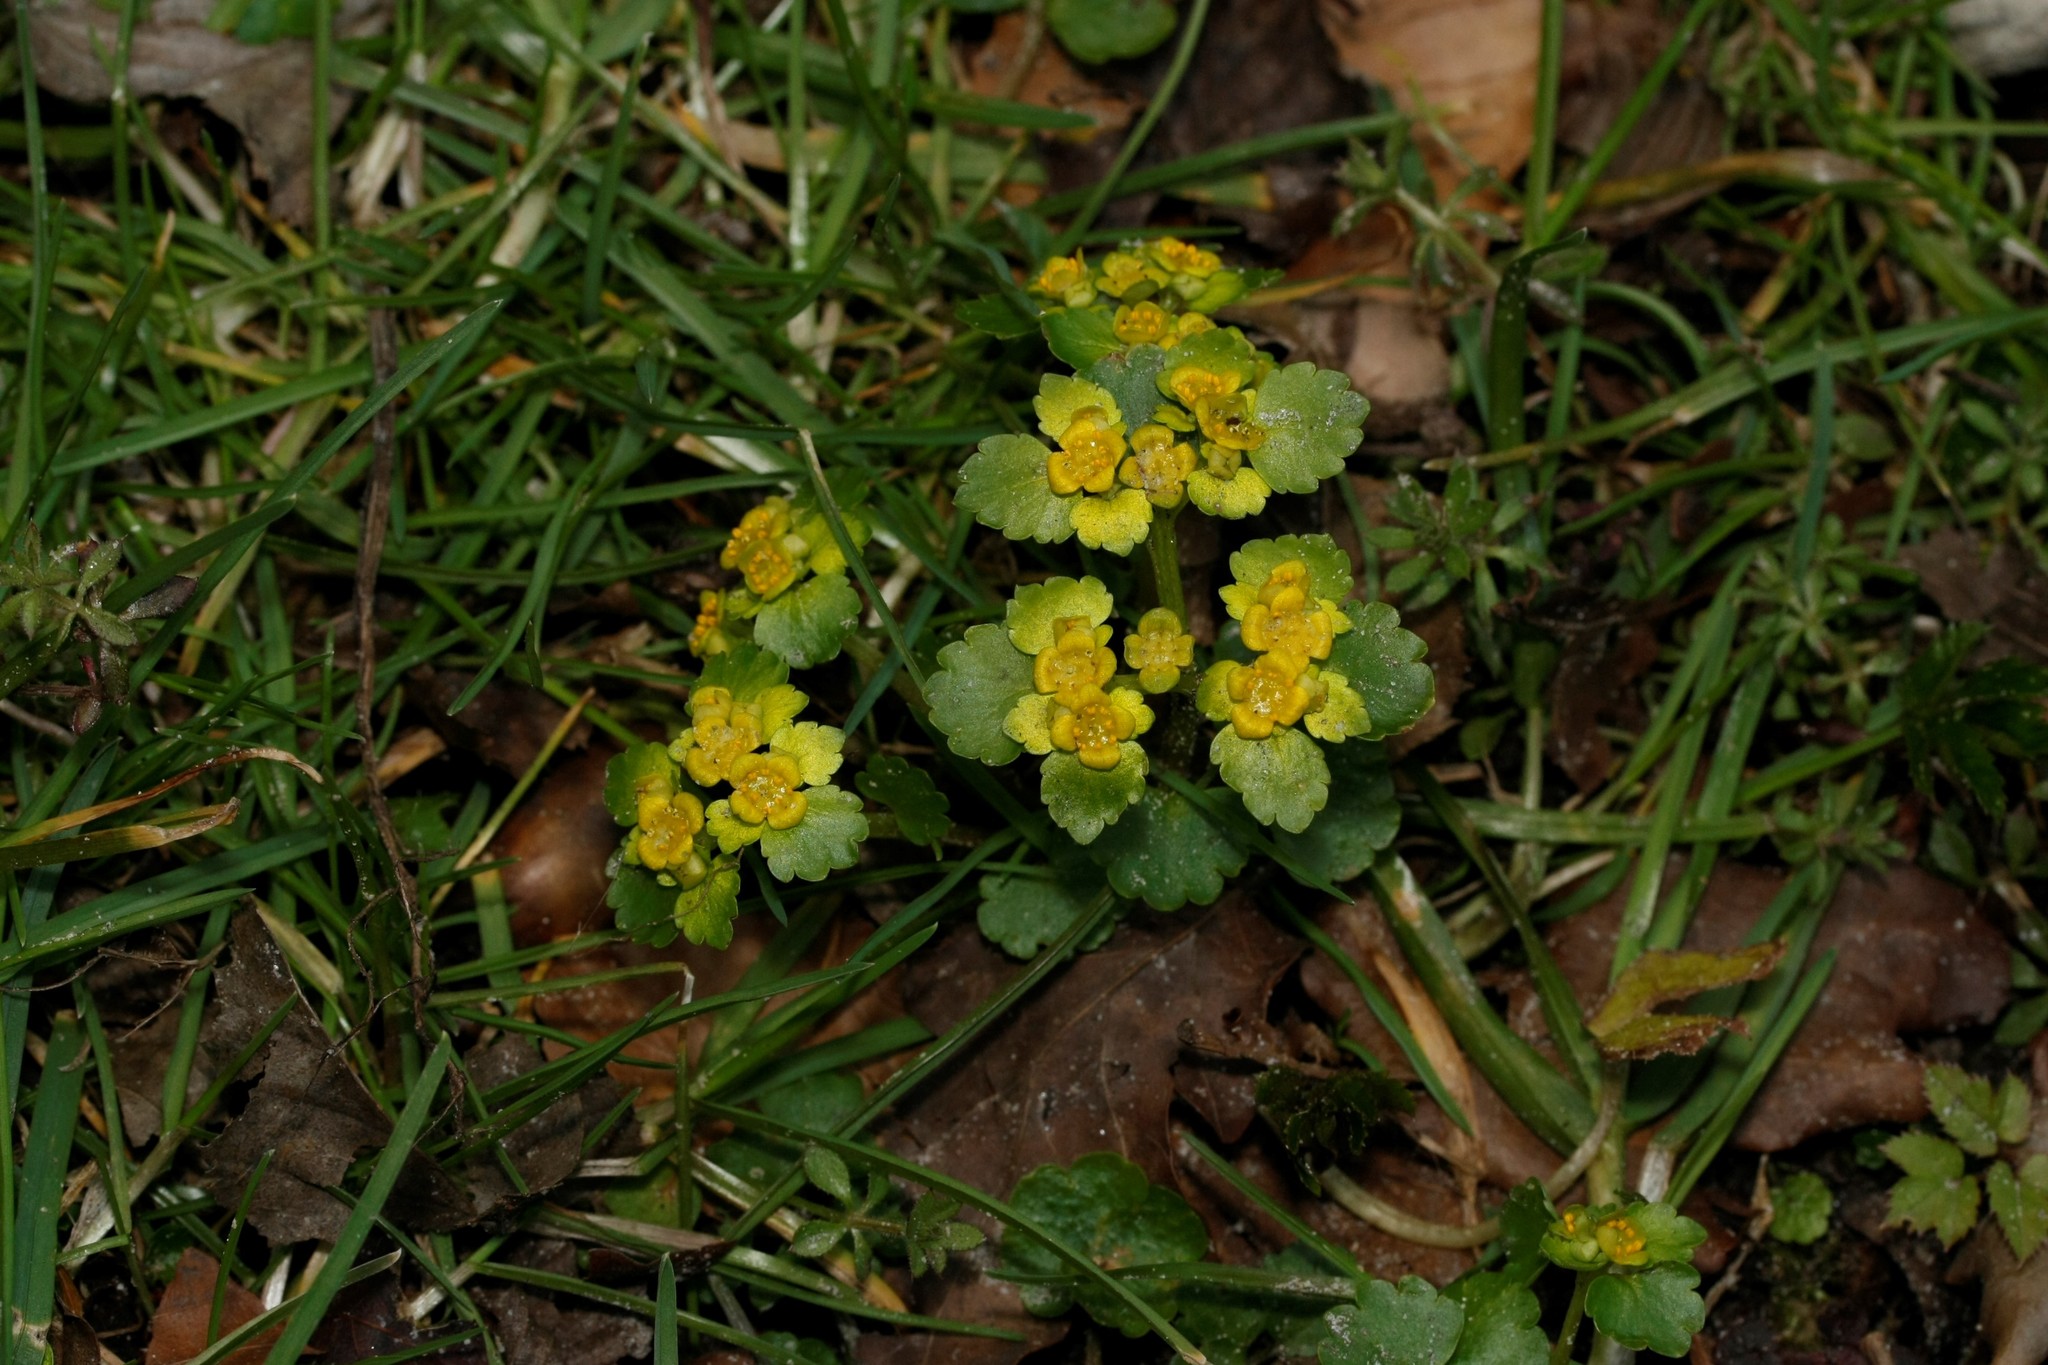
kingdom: Plantae
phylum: Tracheophyta
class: Magnoliopsida
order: Saxifragales
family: Saxifragaceae
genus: Chrysosplenium
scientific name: Chrysosplenium alternifolium
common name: Alternate-leaved golden-saxifrage
